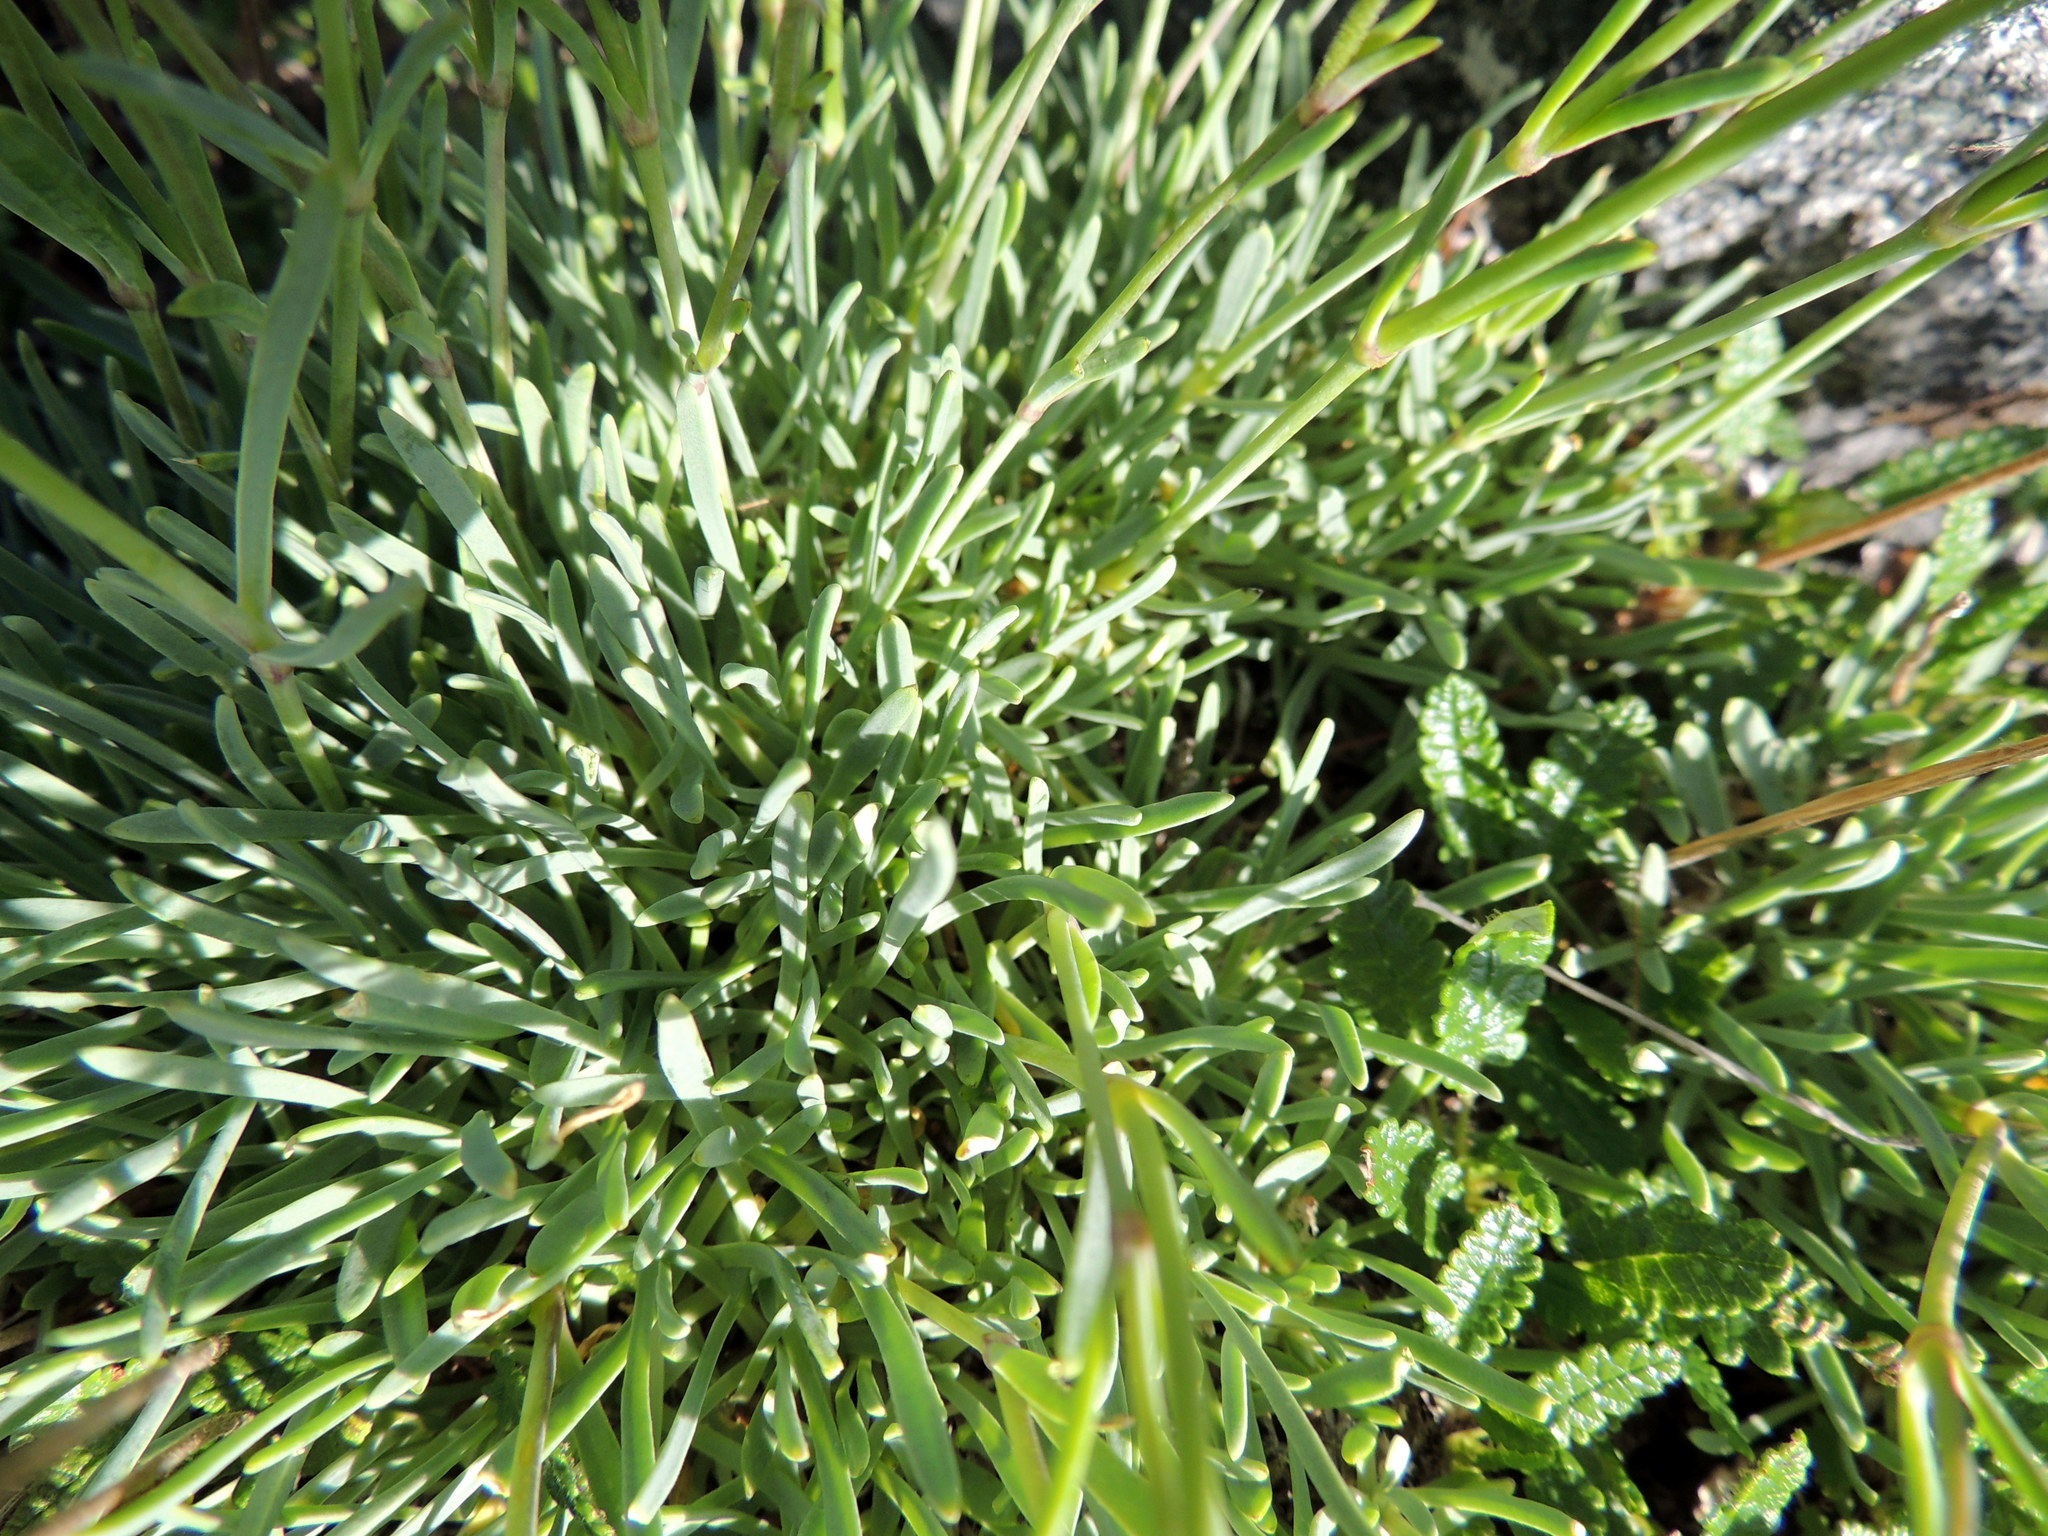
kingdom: Plantae
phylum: Tracheophyta
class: Magnoliopsida
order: Caryophyllales
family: Caryophyllaceae
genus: Gypsophila
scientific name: Gypsophila uralensis
